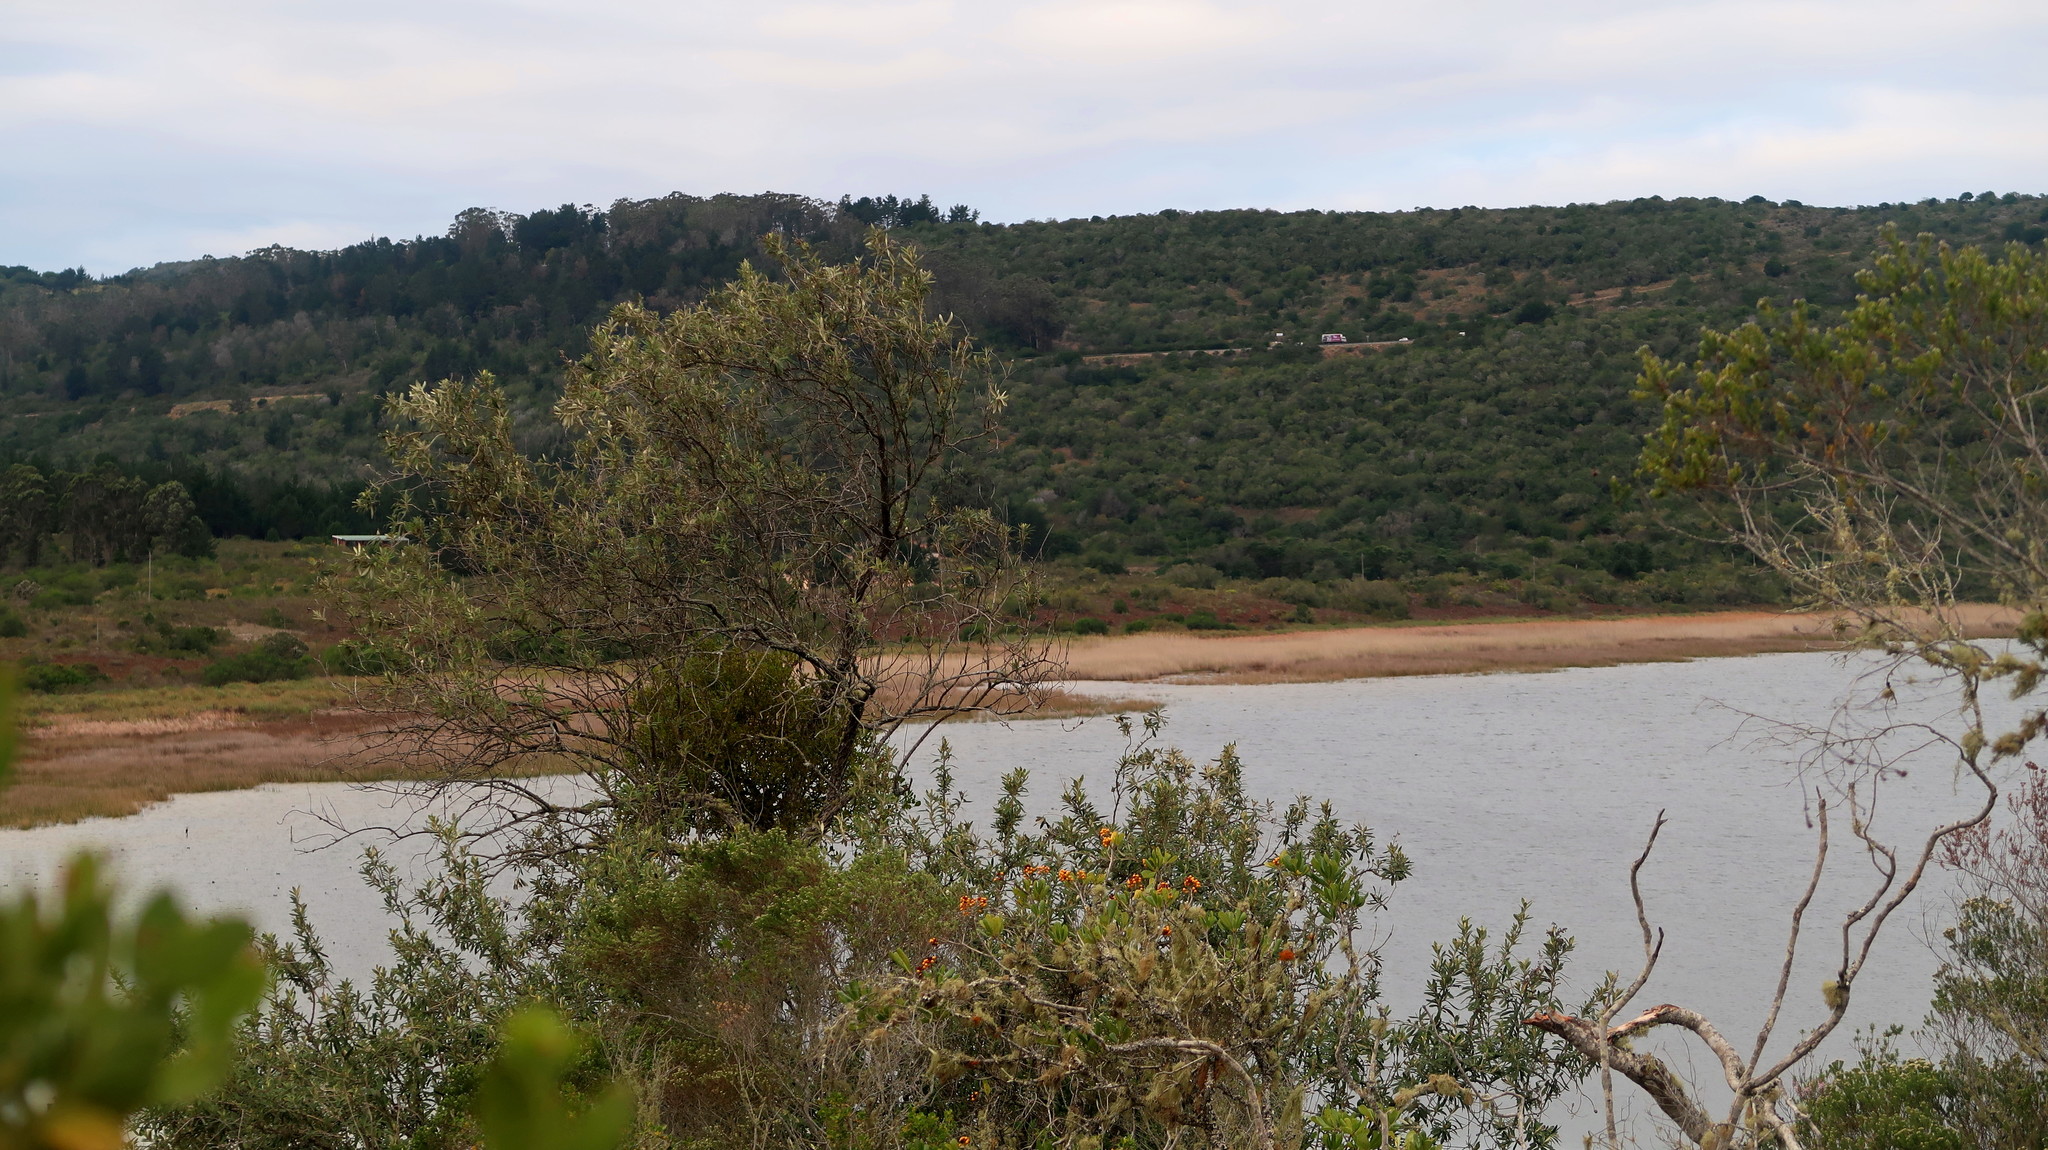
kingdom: Plantae
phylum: Tracheophyta
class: Magnoliopsida
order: Lamiales
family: Scrophulariaceae
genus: Buddleja
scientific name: Buddleja salviifolia
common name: Sagewood
